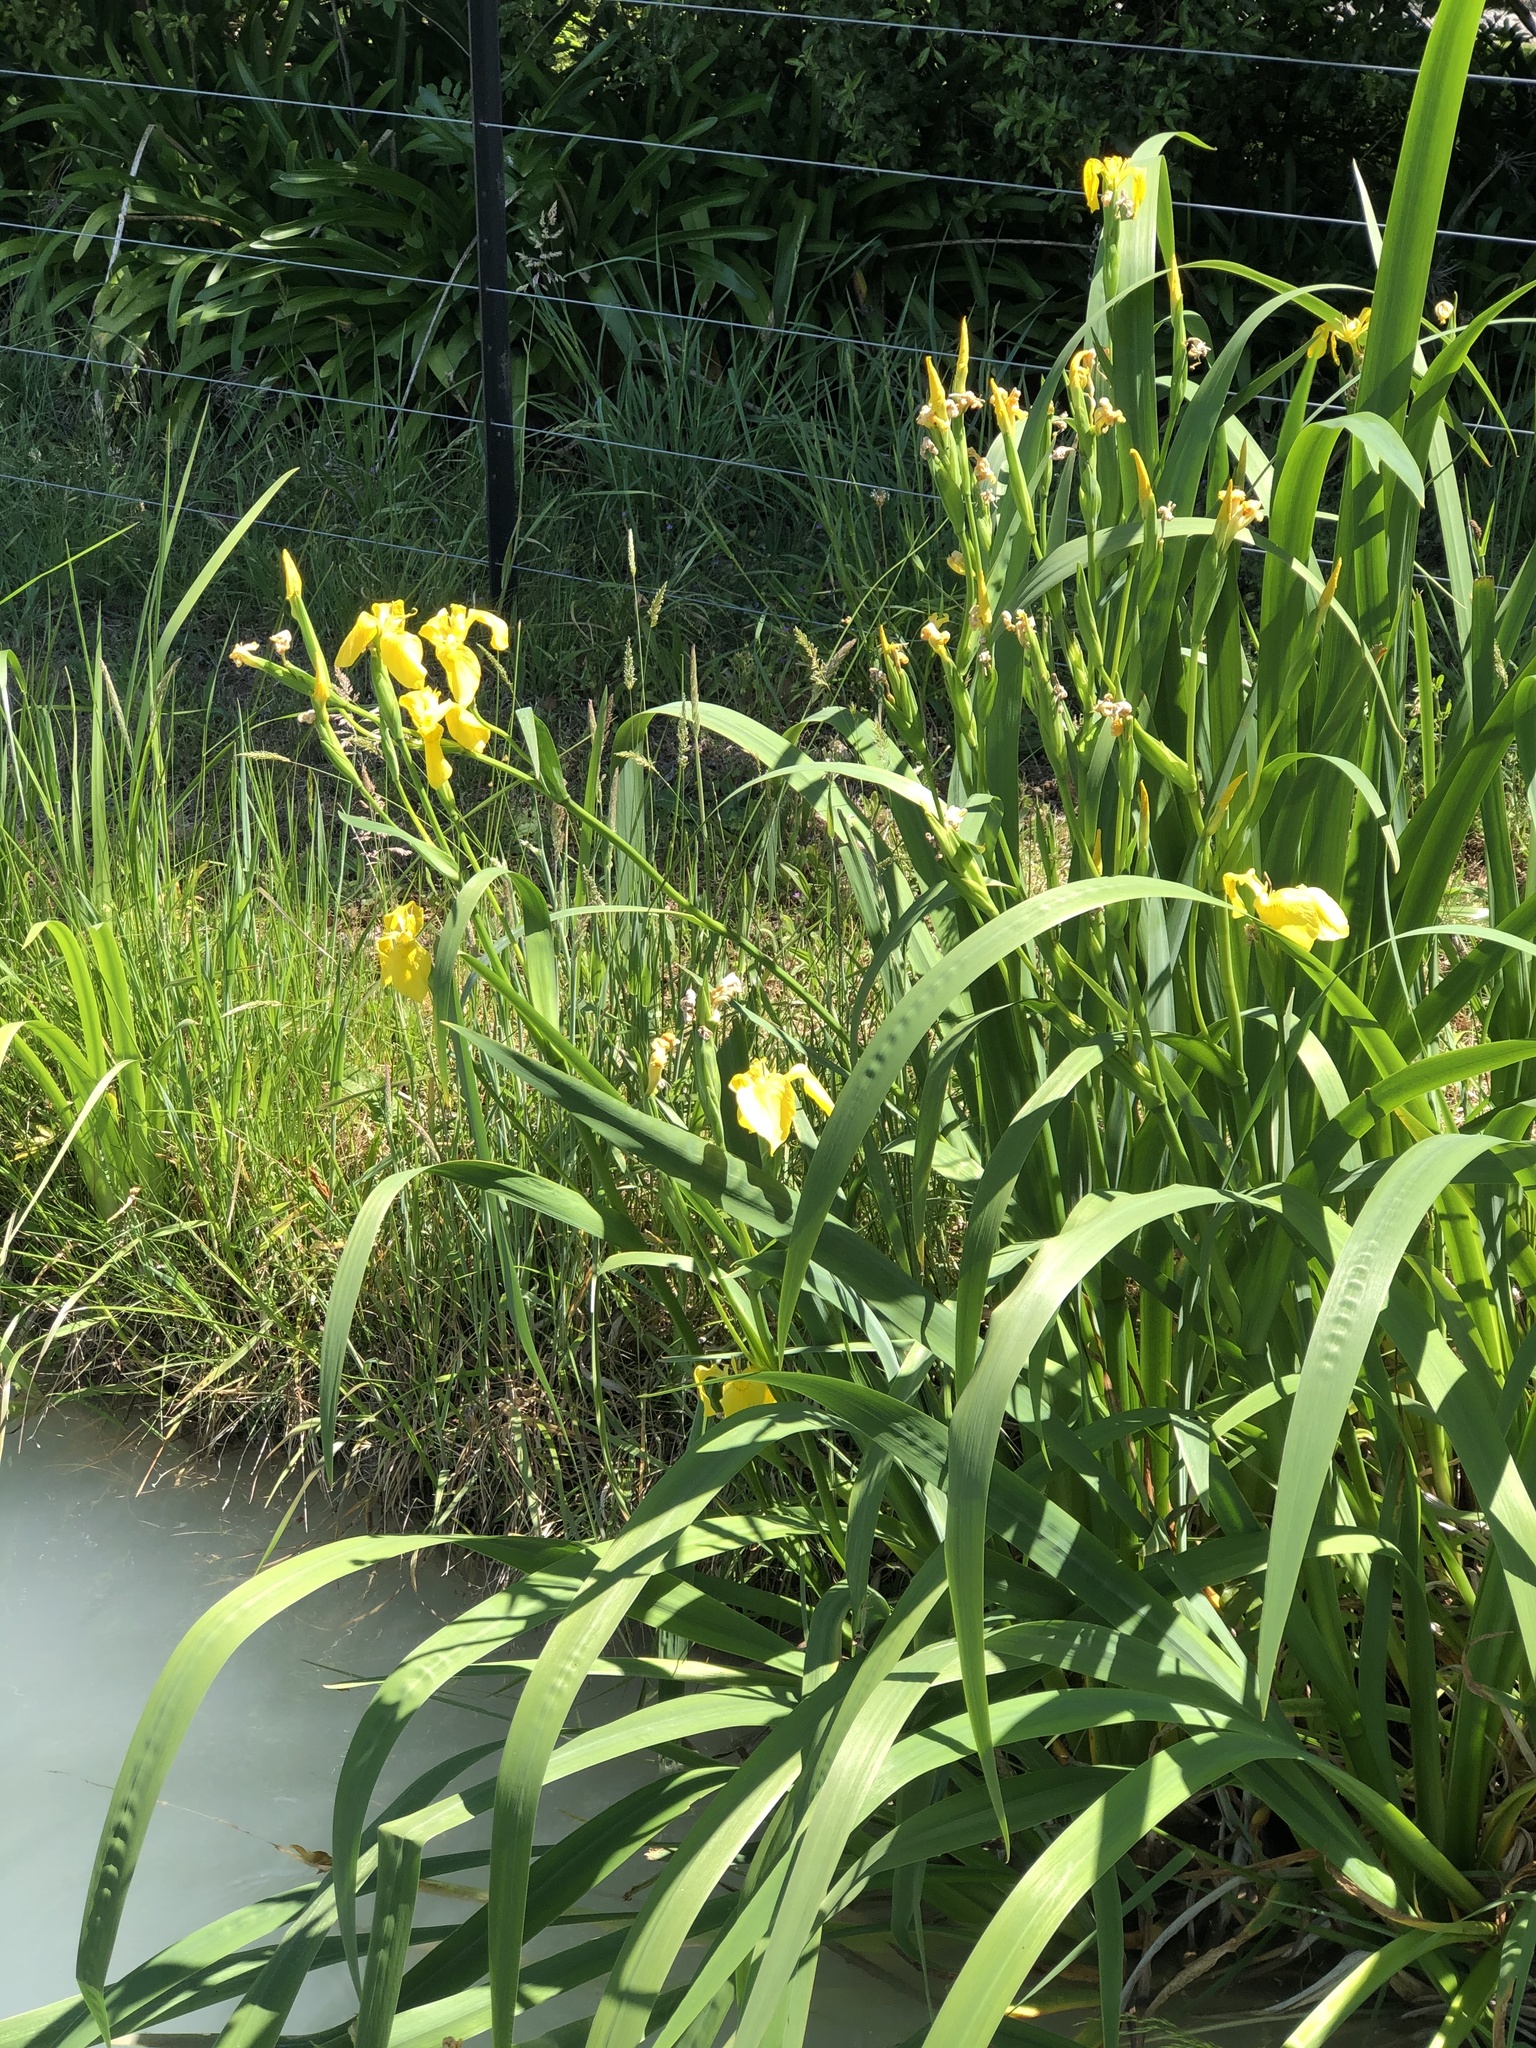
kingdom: Plantae
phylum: Tracheophyta
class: Liliopsida
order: Asparagales
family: Iridaceae
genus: Iris
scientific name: Iris pseudacorus
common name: Yellow flag
